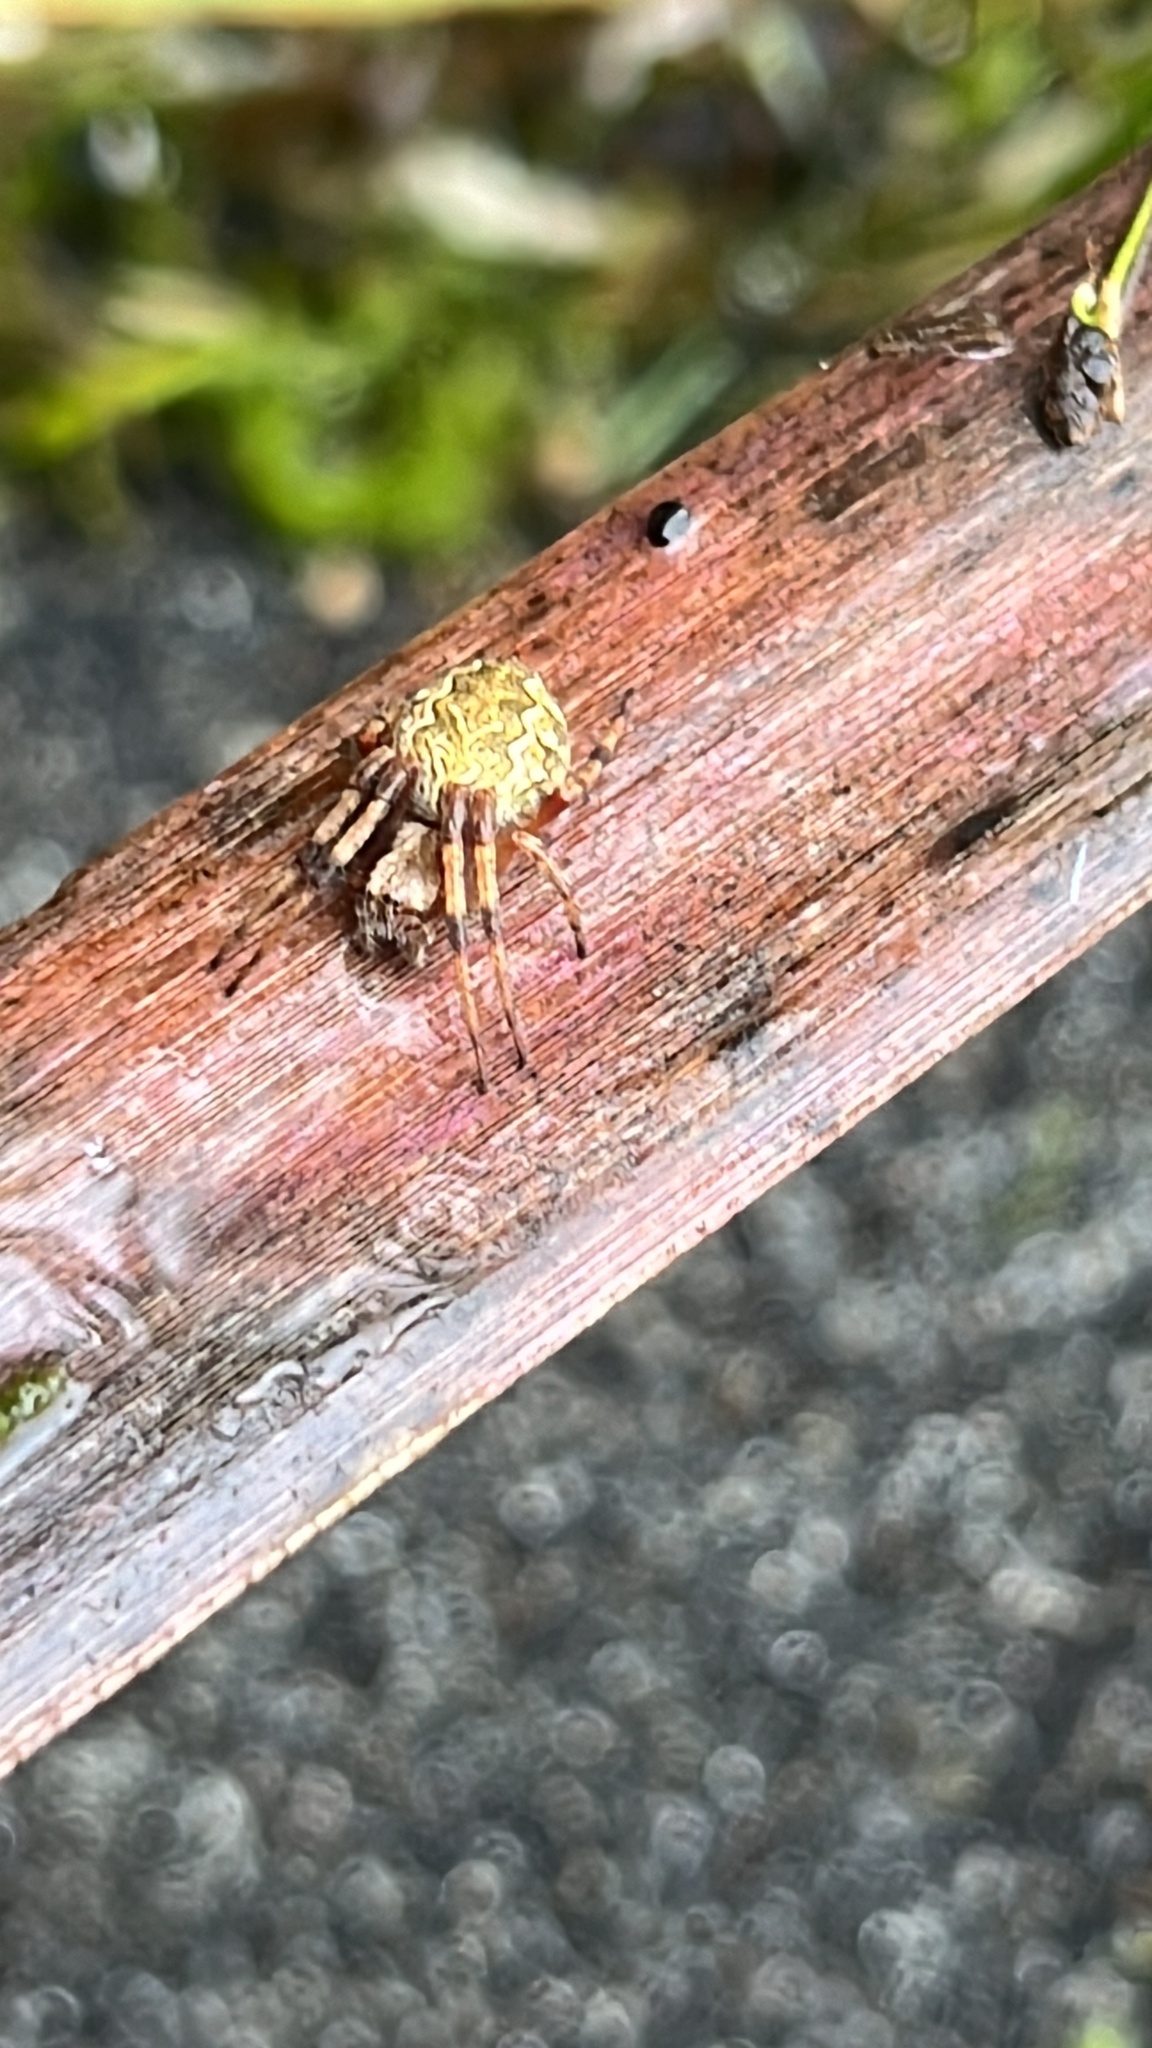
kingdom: Animalia
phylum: Arthropoda
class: Arachnida
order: Araneae
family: Araneidae
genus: Salsa
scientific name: Salsa fuliginata
